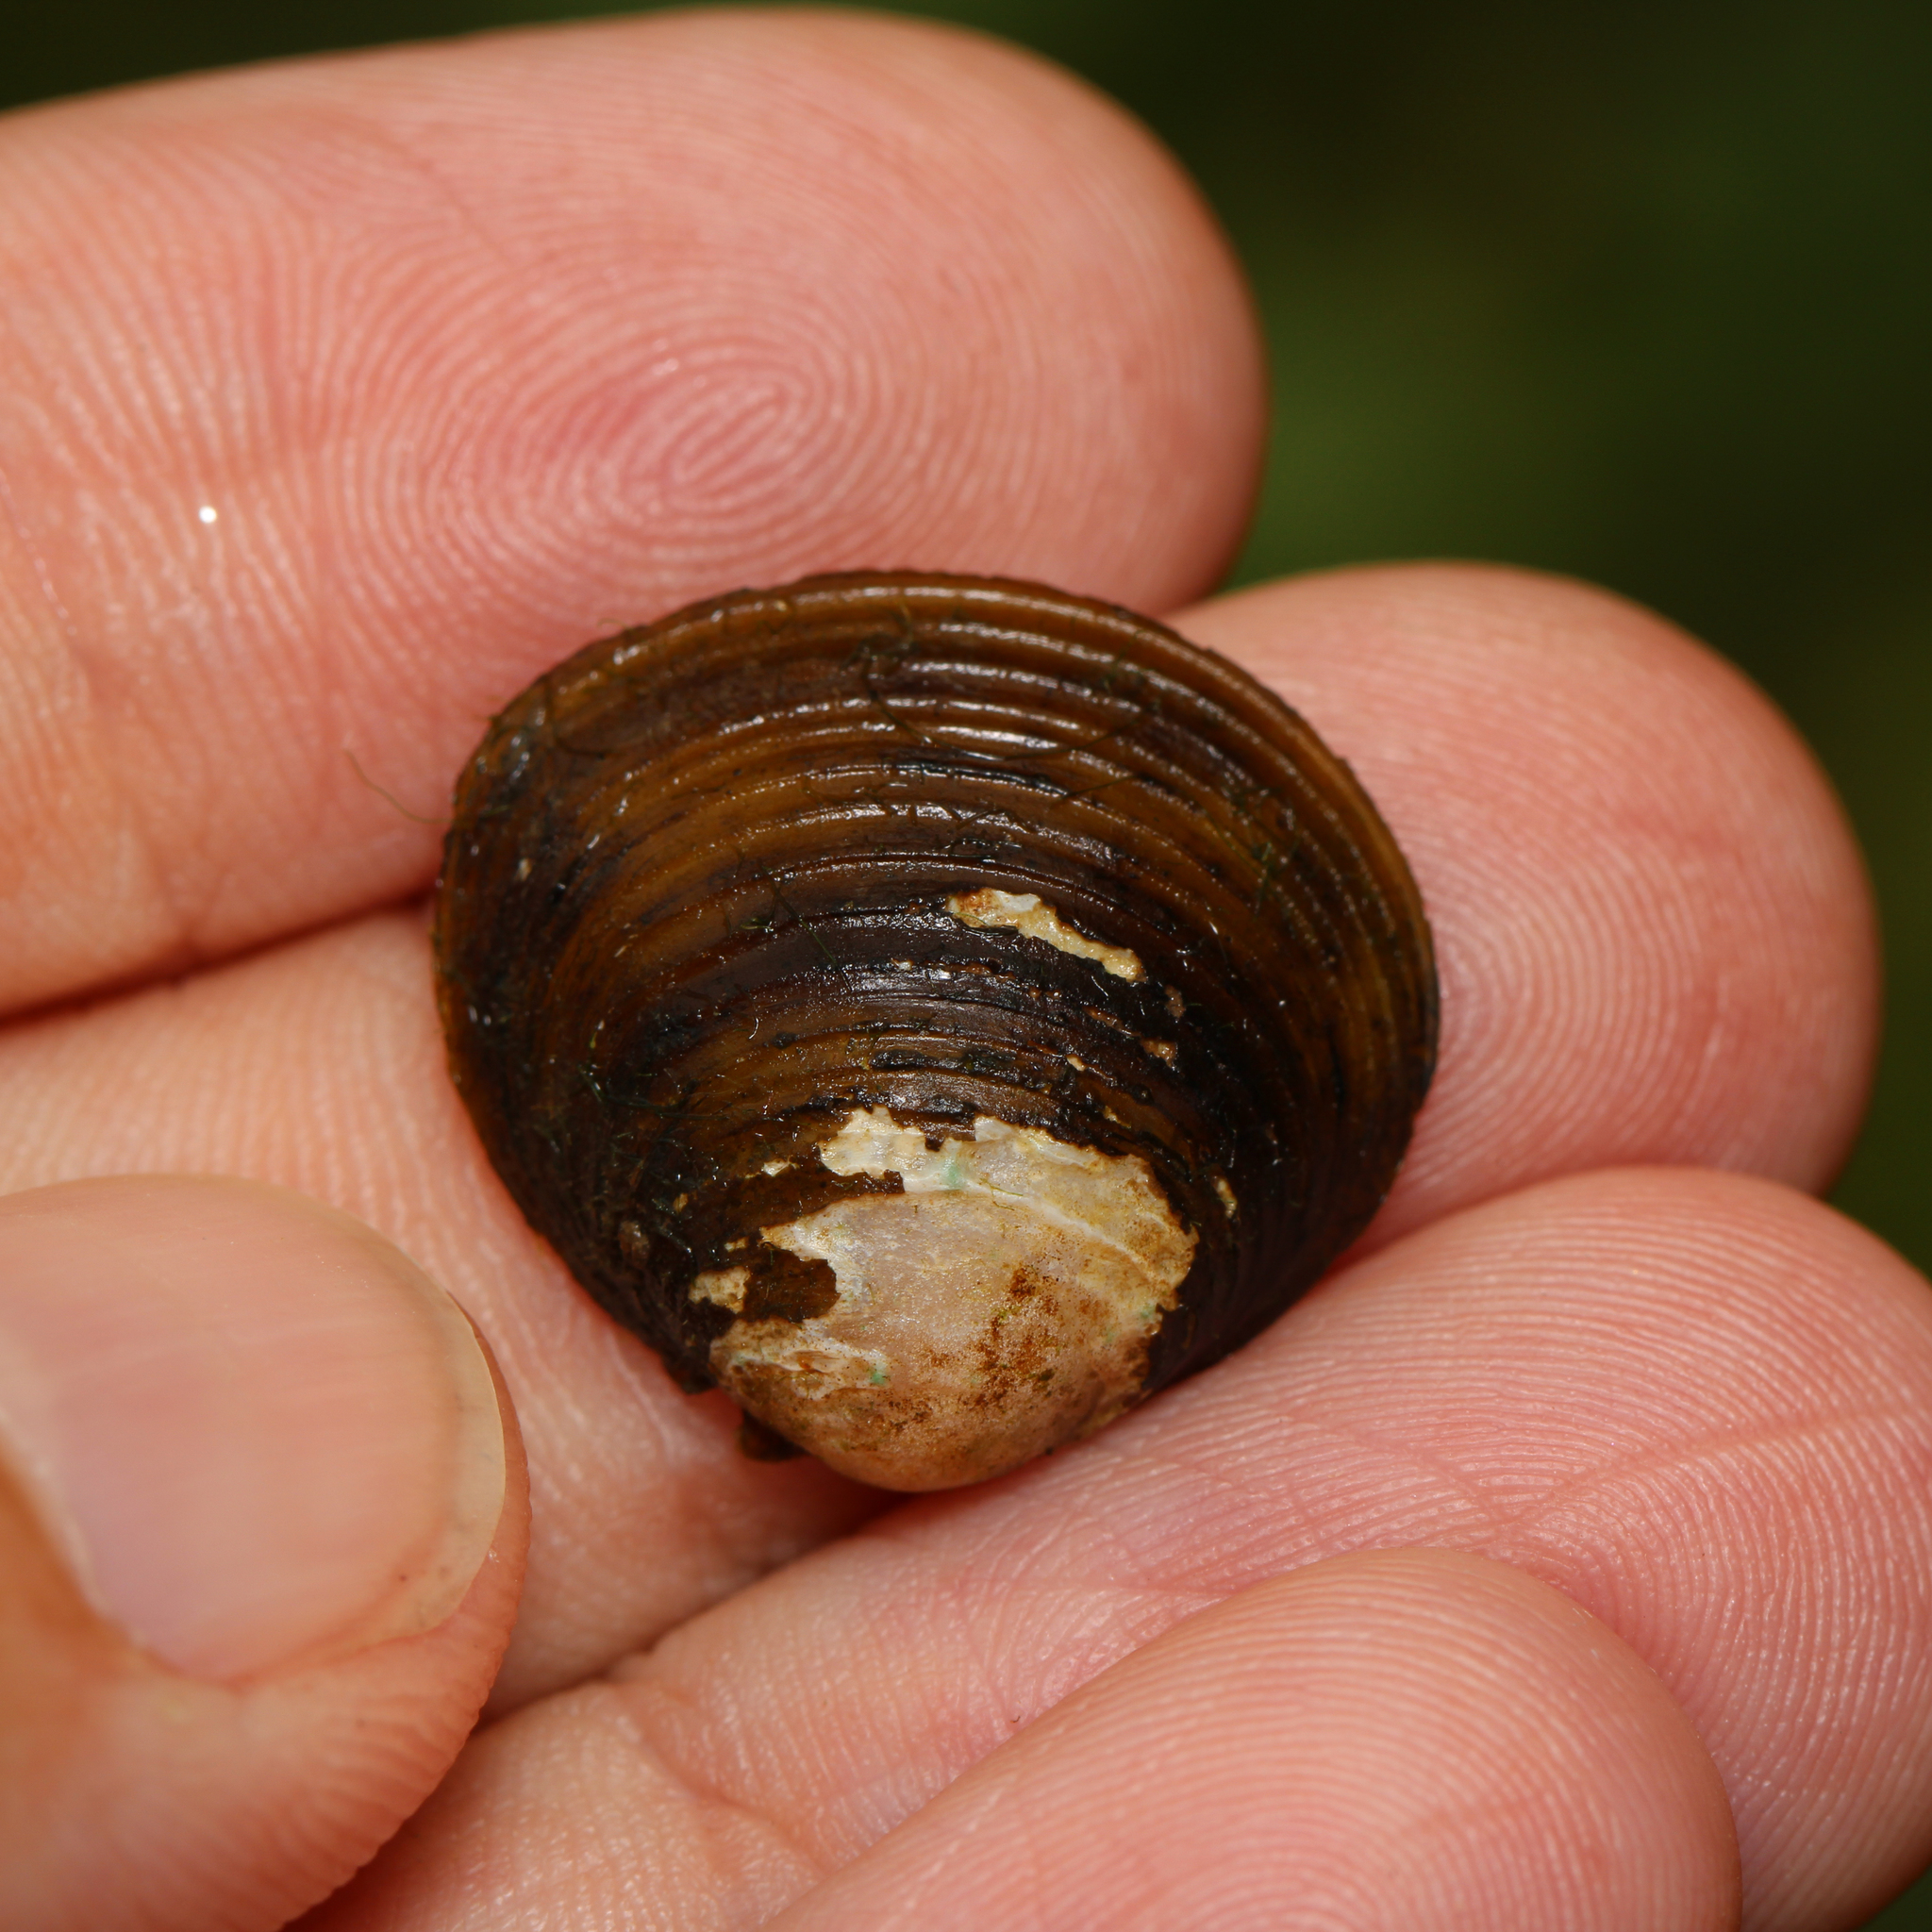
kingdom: Animalia
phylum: Mollusca
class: Bivalvia
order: Venerida
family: Cyrenidae
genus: Corbicula
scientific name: Corbicula fluminea
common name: Asian clam
